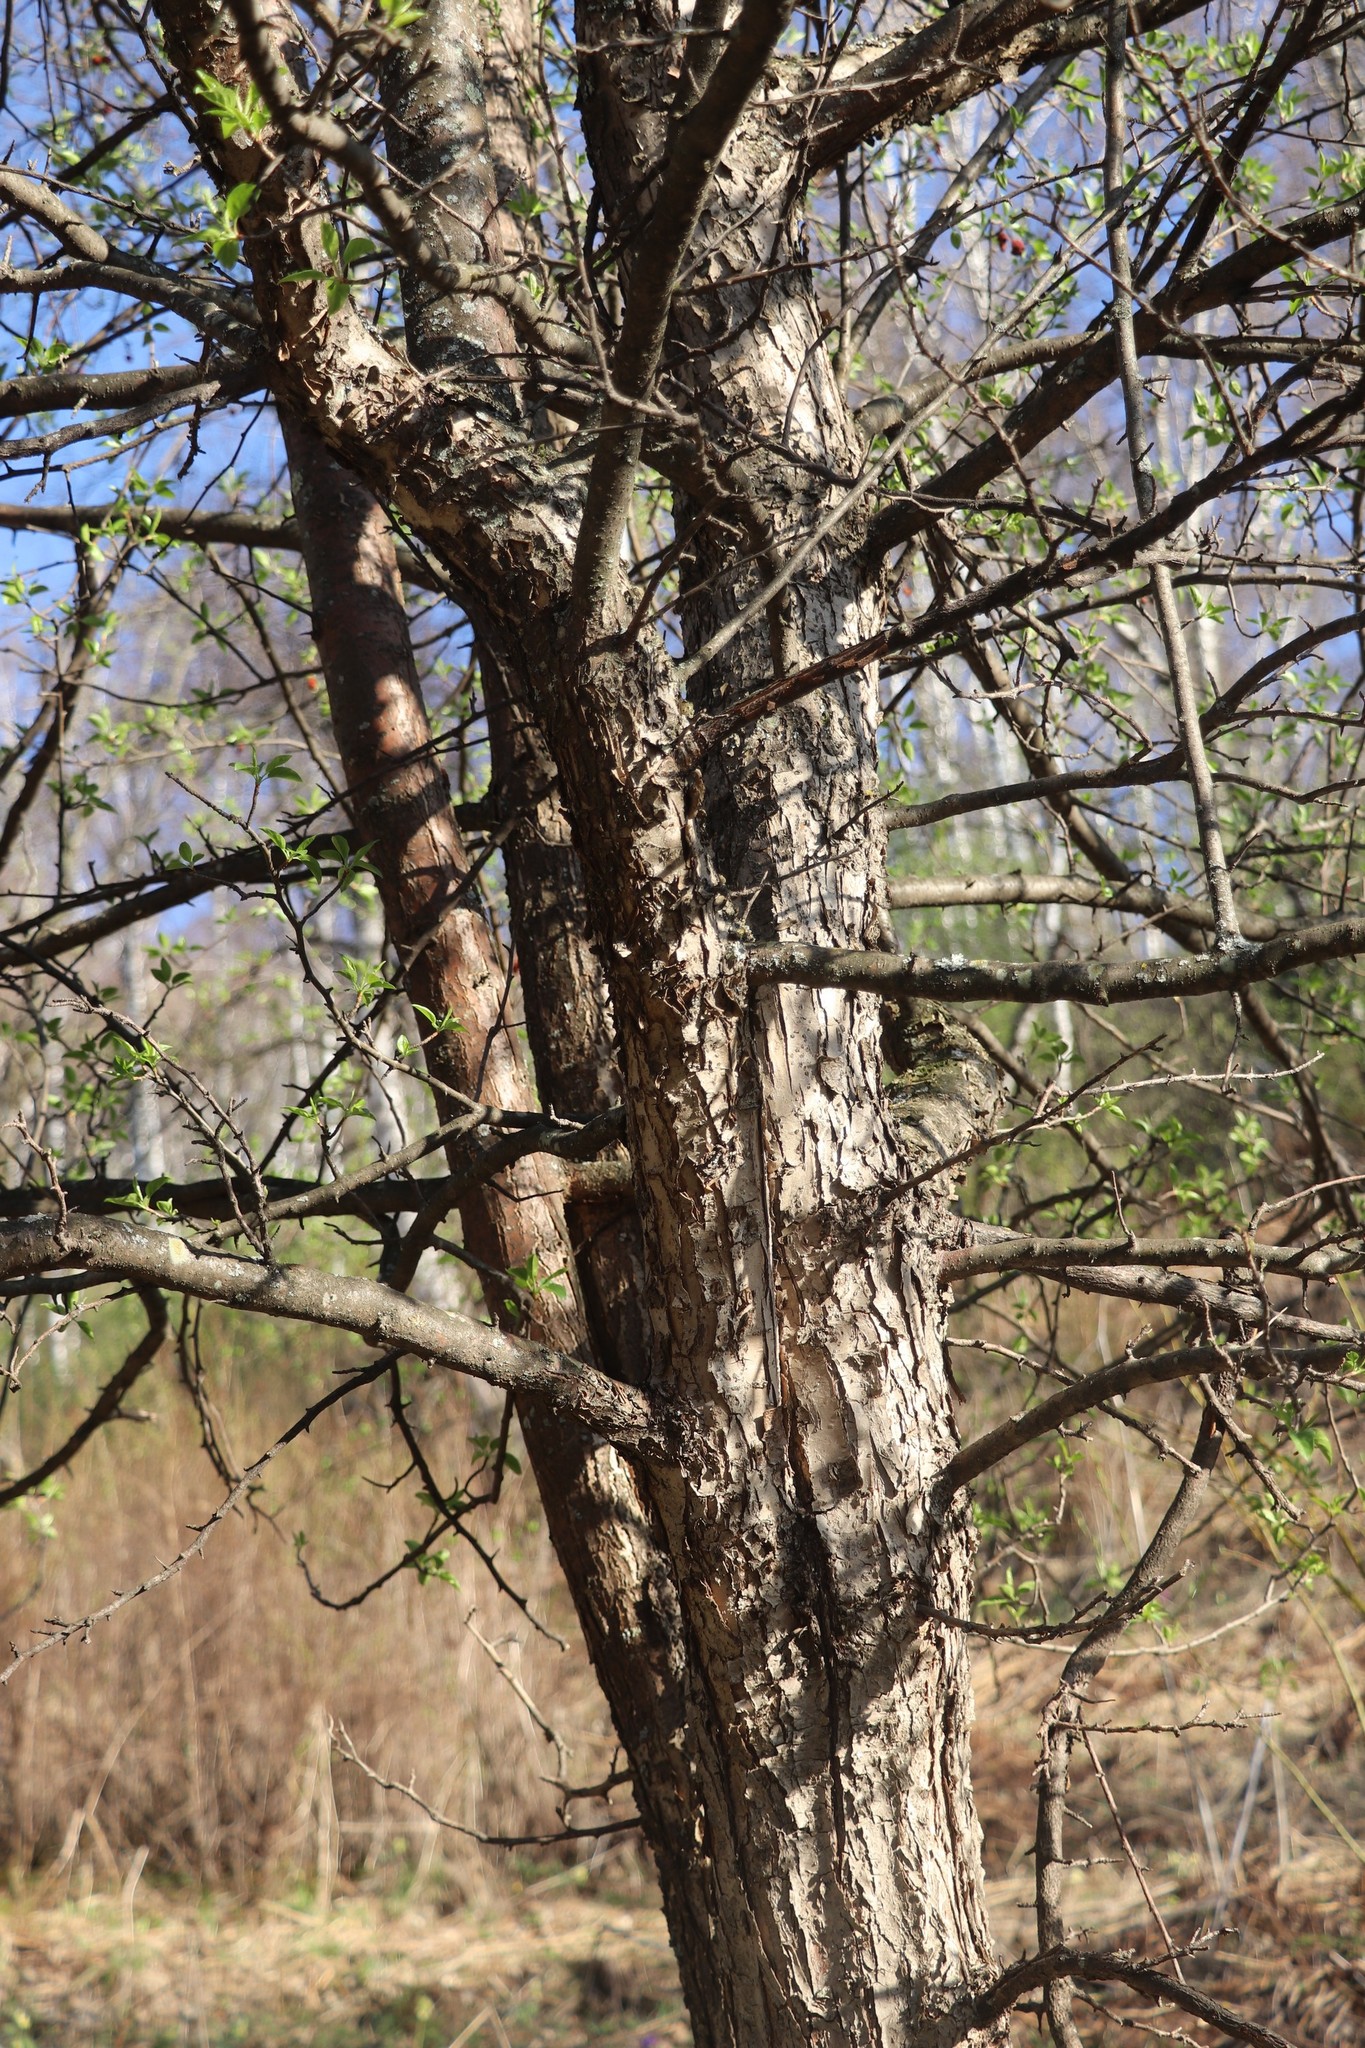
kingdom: Plantae
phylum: Tracheophyta
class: Magnoliopsida
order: Rosales
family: Rosaceae
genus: Malus
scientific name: Malus baccata
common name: Siberian crab
